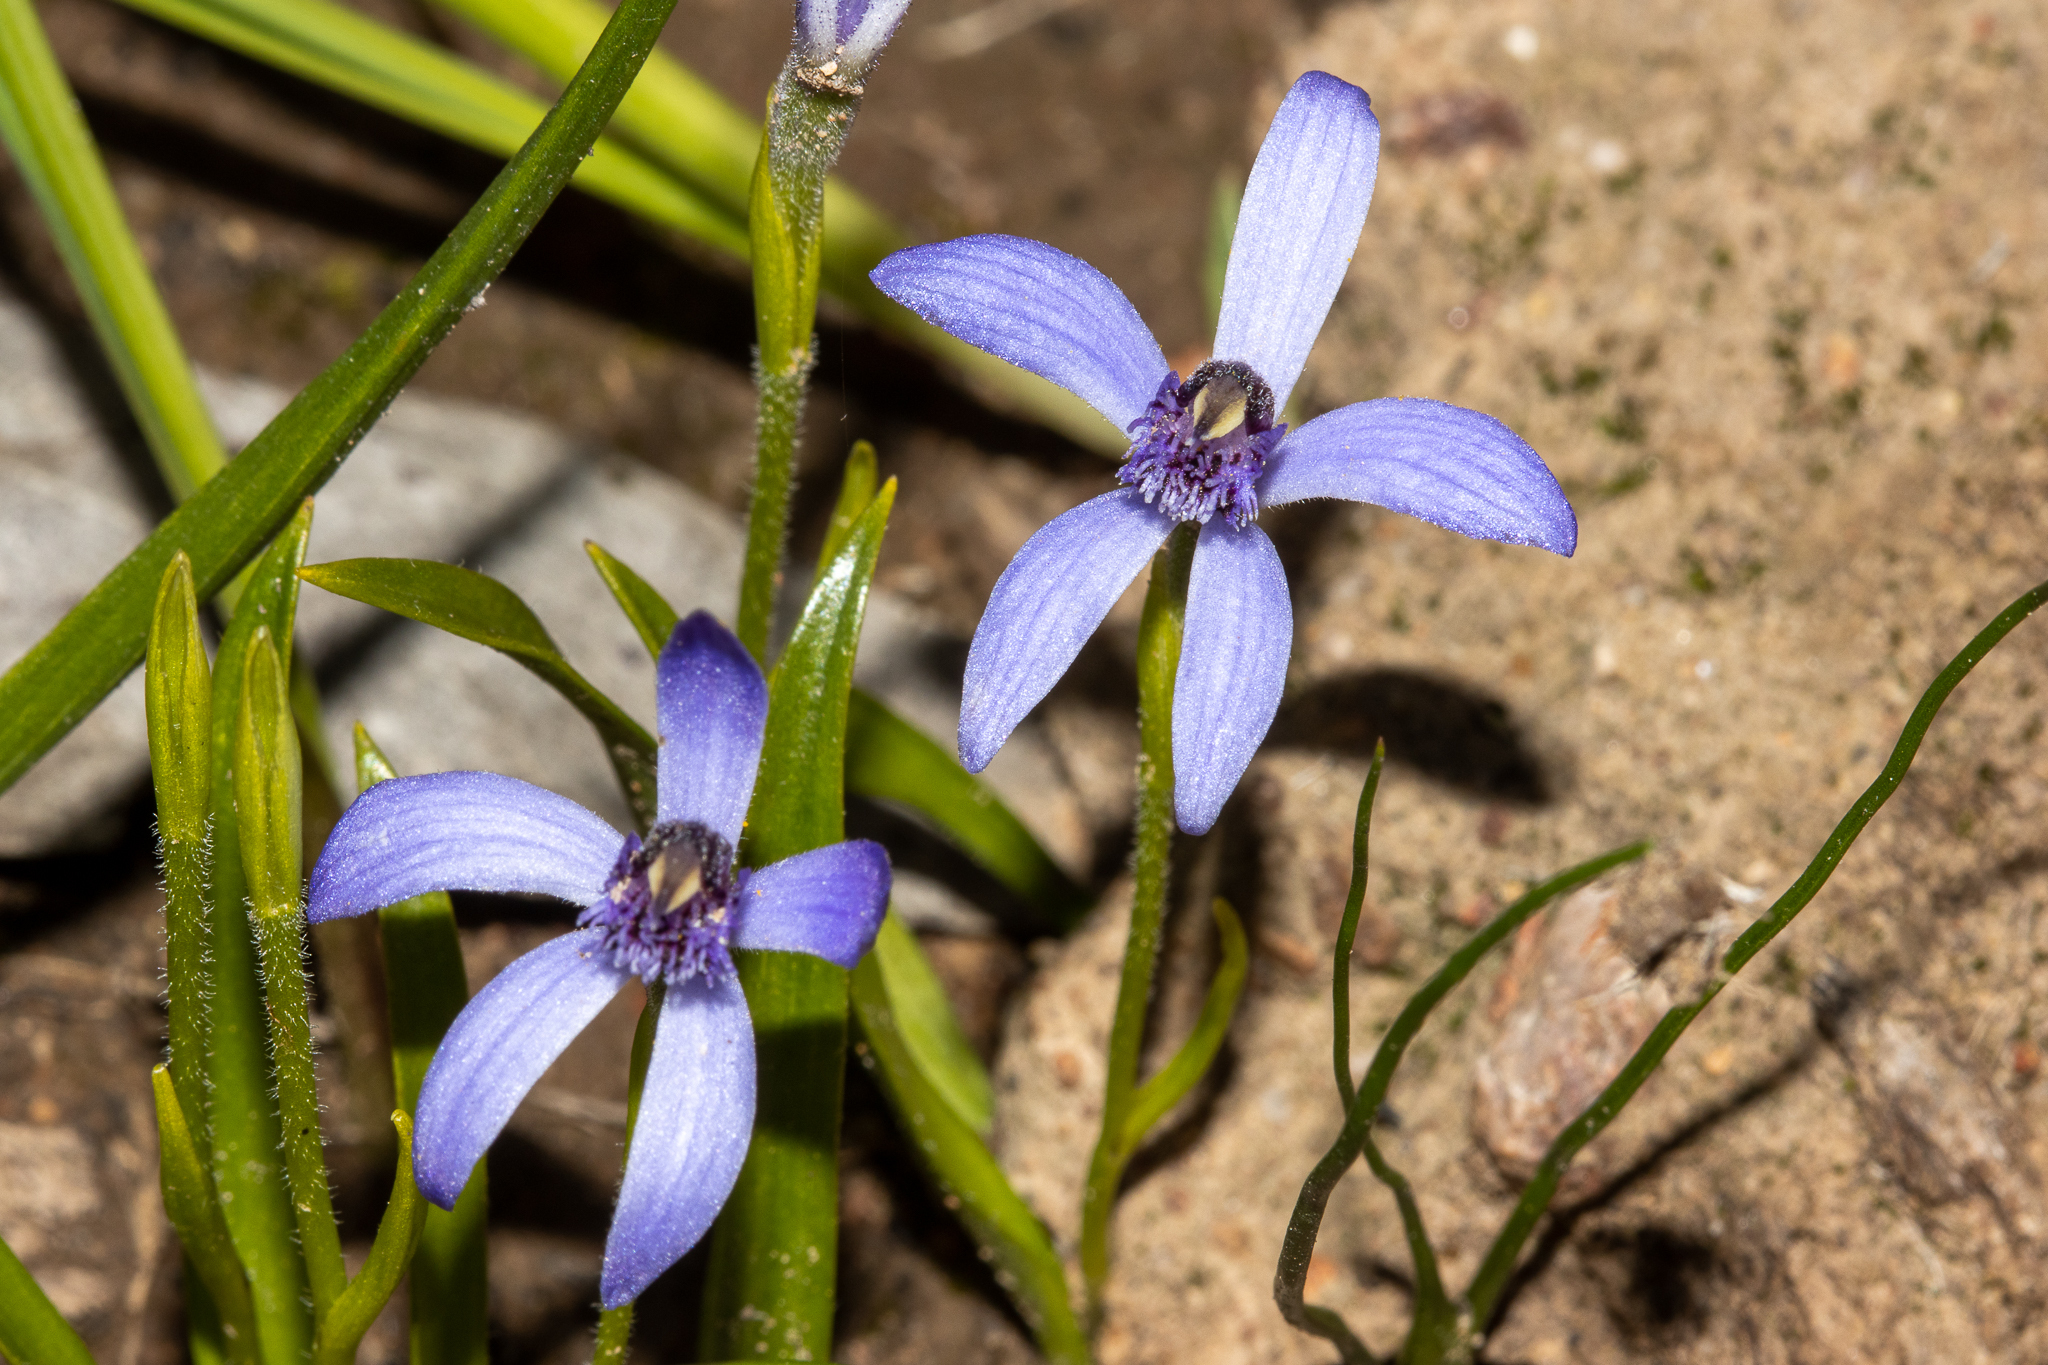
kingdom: Plantae
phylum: Tracheophyta
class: Liliopsida
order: Asparagales
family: Orchidaceae
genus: Pheladenia
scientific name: Pheladenia deformis
